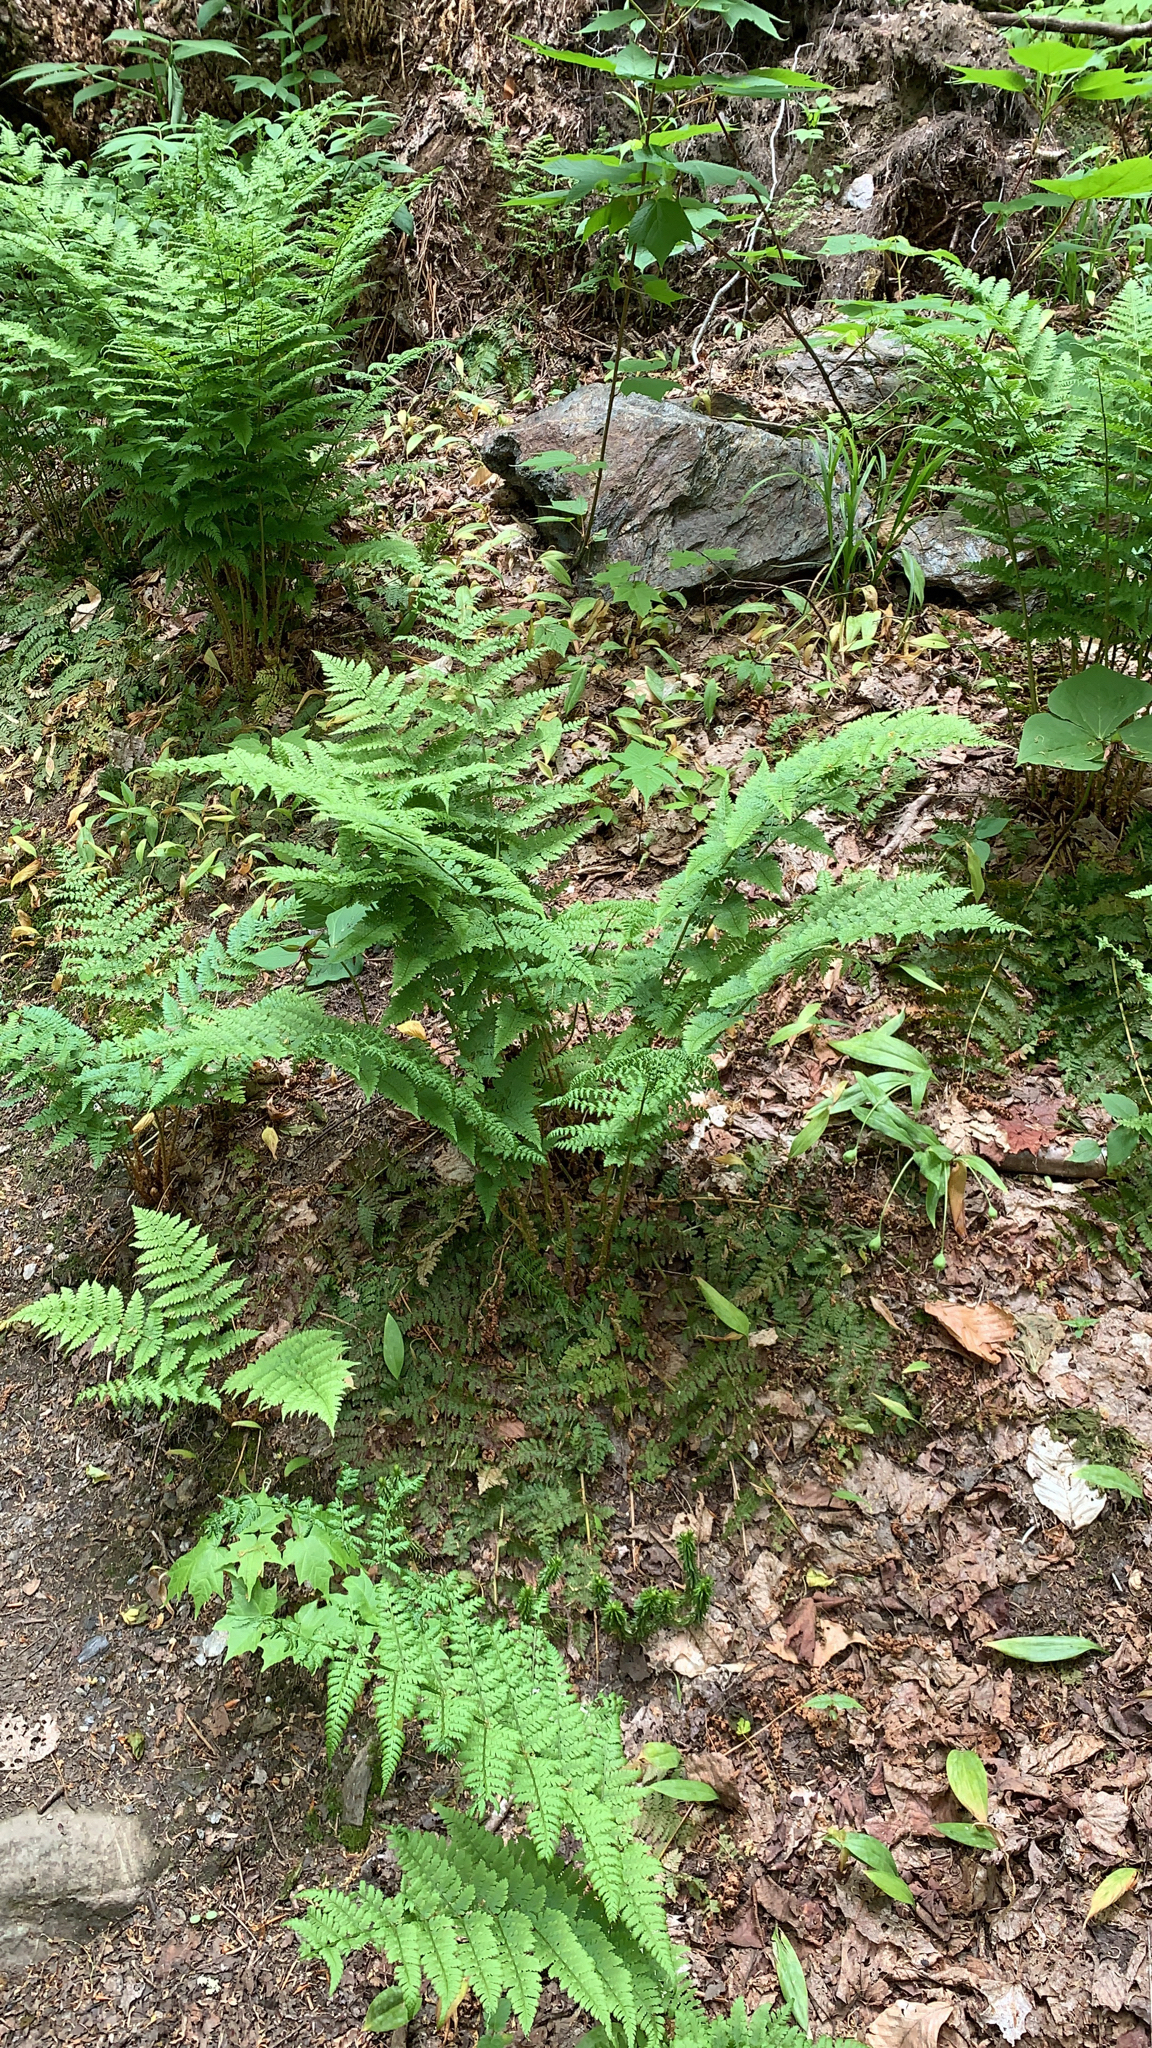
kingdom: Plantae
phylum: Tracheophyta
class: Polypodiopsida
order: Polypodiales
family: Dryopteridaceae
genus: Dryopteris
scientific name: Dryopteris intermedia
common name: Evergreen wood fern
